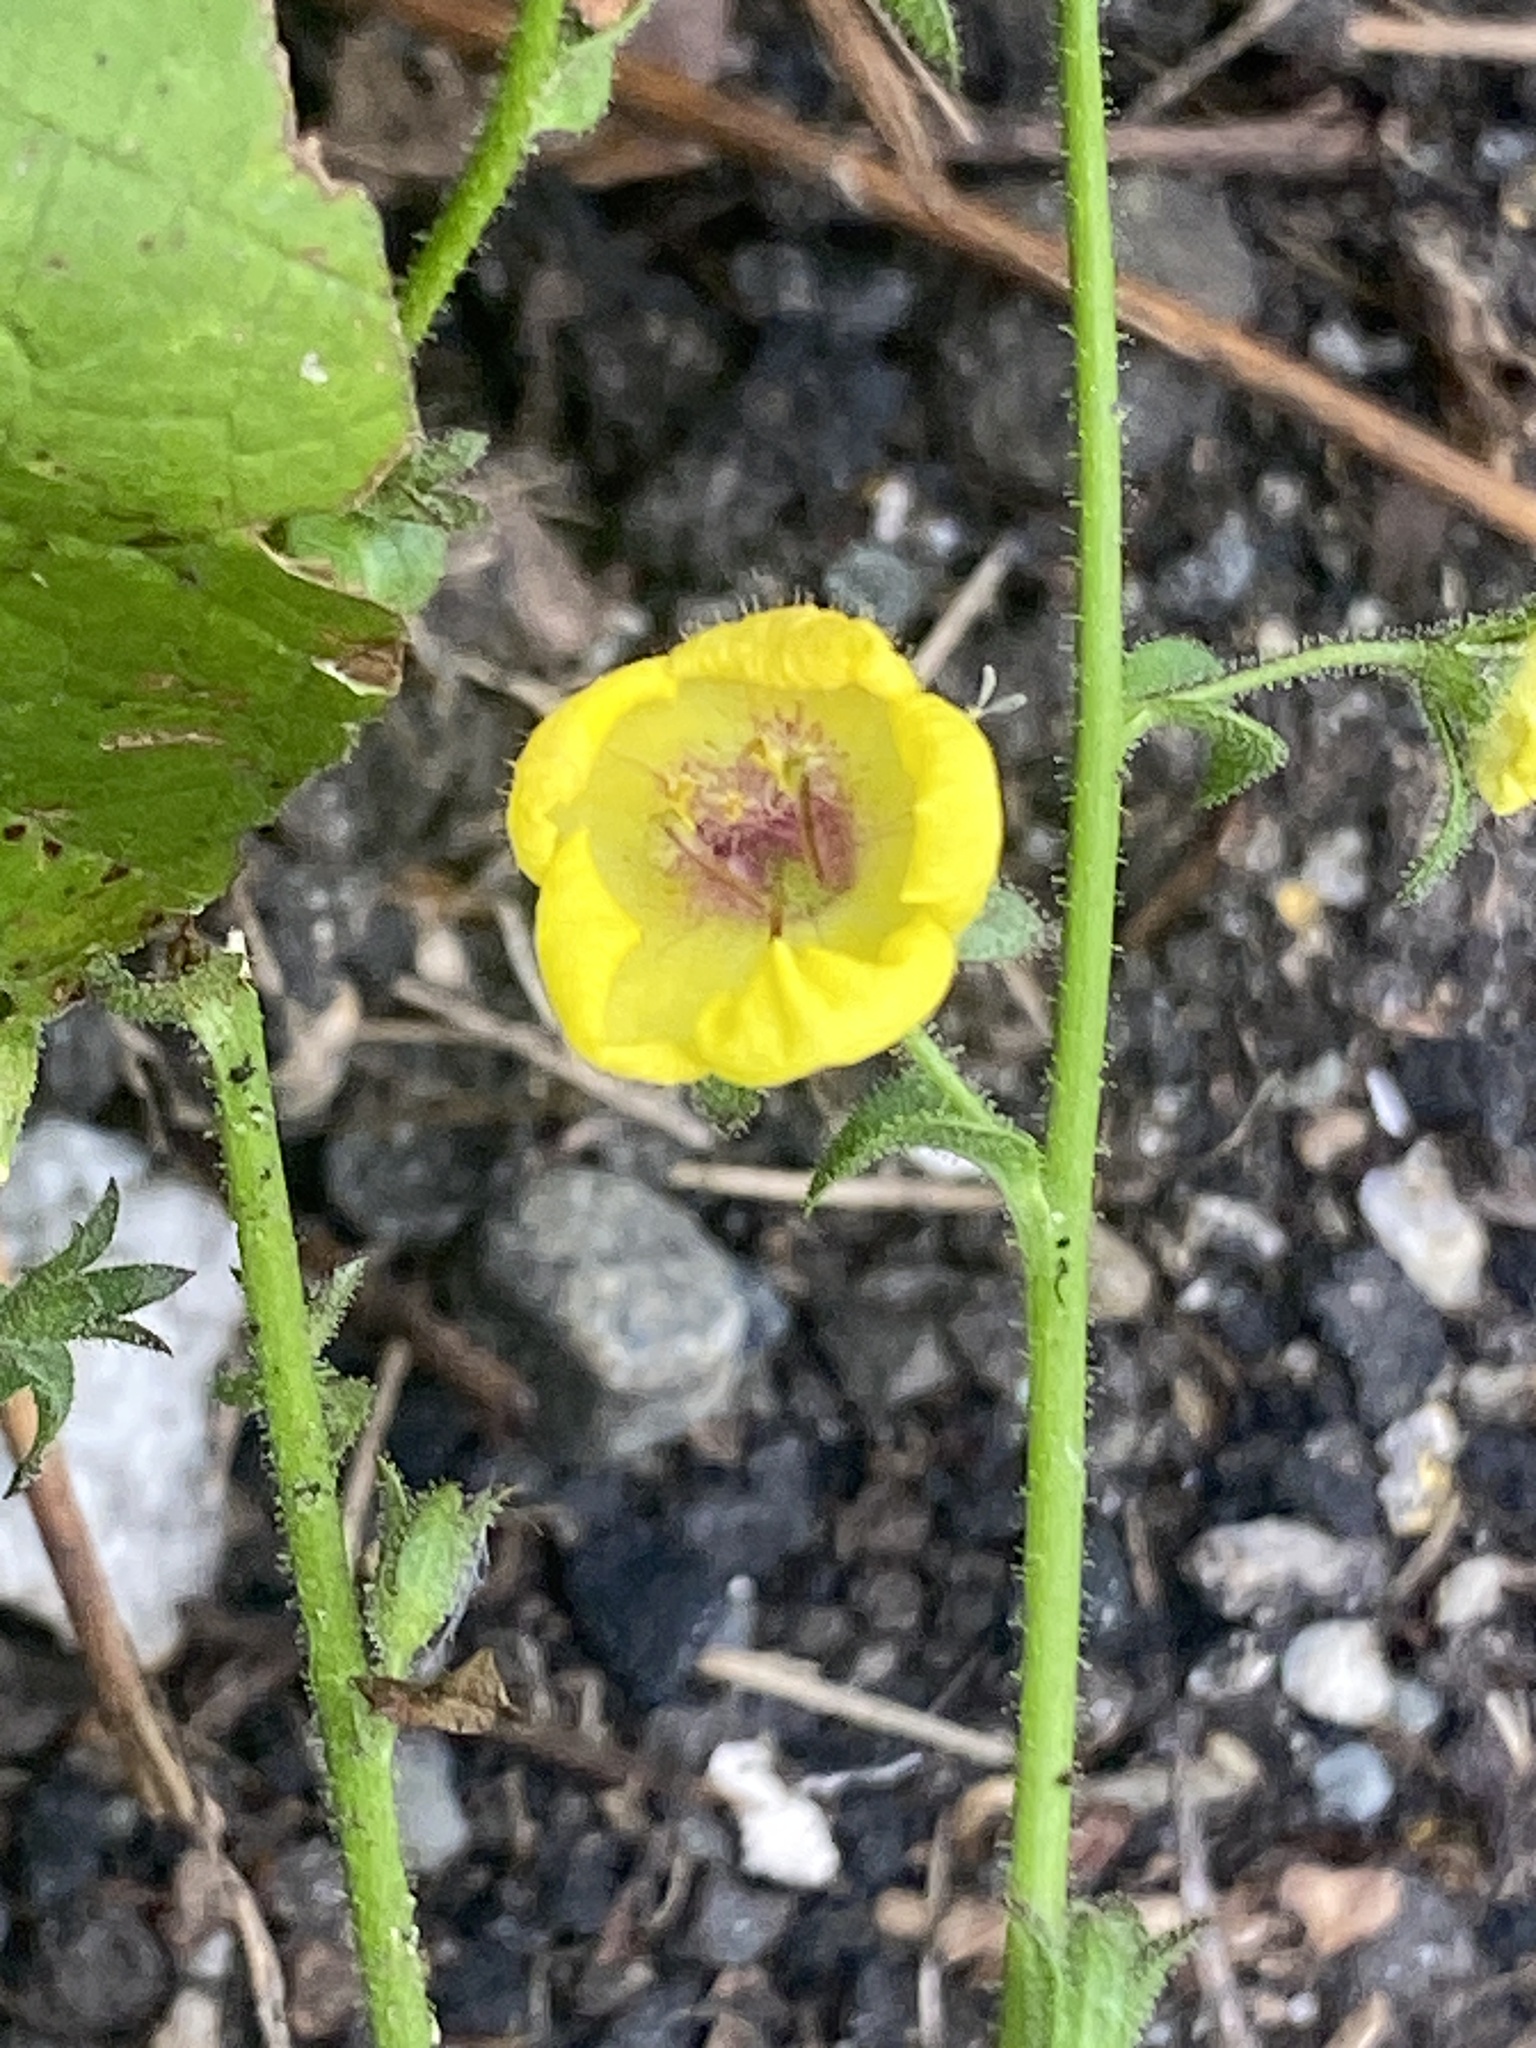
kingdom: Plantae
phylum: Tracheophyta
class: Magnoliopsida
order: Lamiales
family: Scrophulariaceae
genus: Verbascum
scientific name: Verbascum blattaria
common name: Moth mullein
